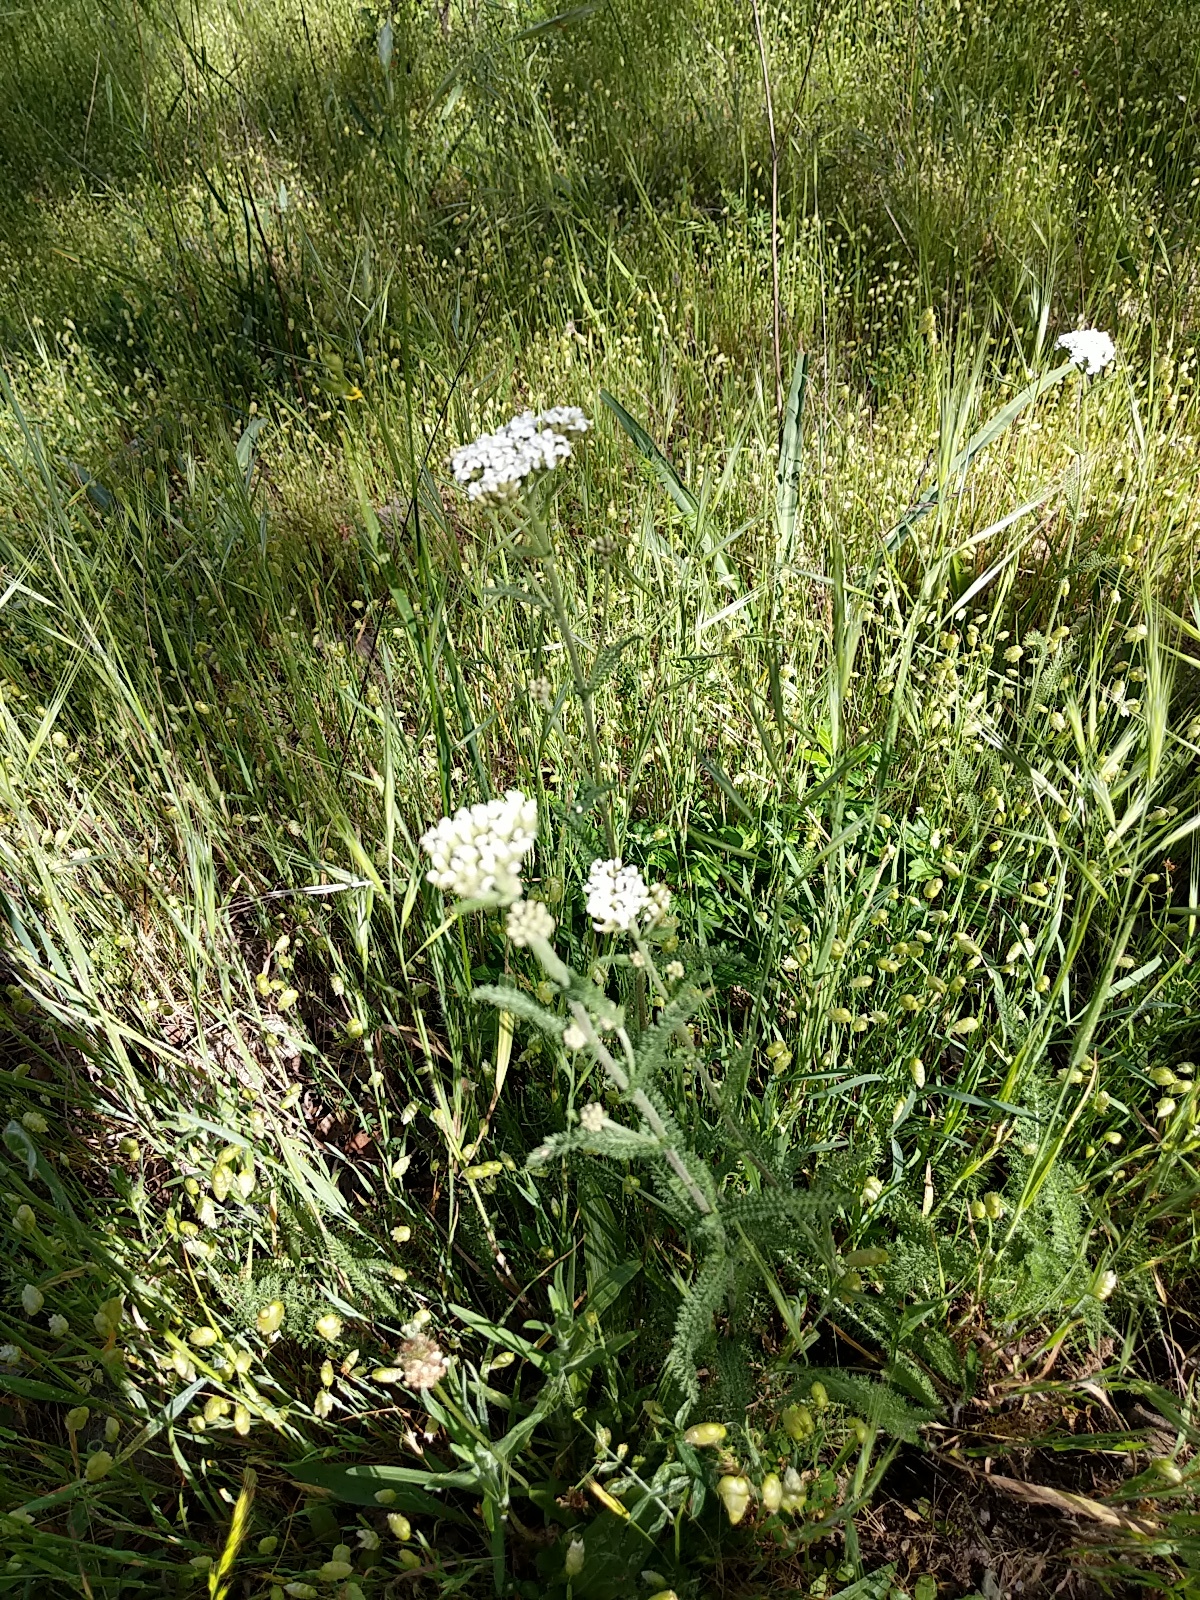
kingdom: Plantae
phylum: Tracheophyta
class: Magnoliopsida
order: Asterales
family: Asteraceae
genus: Achillea
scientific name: Achillea millefolium
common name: Yarrow
